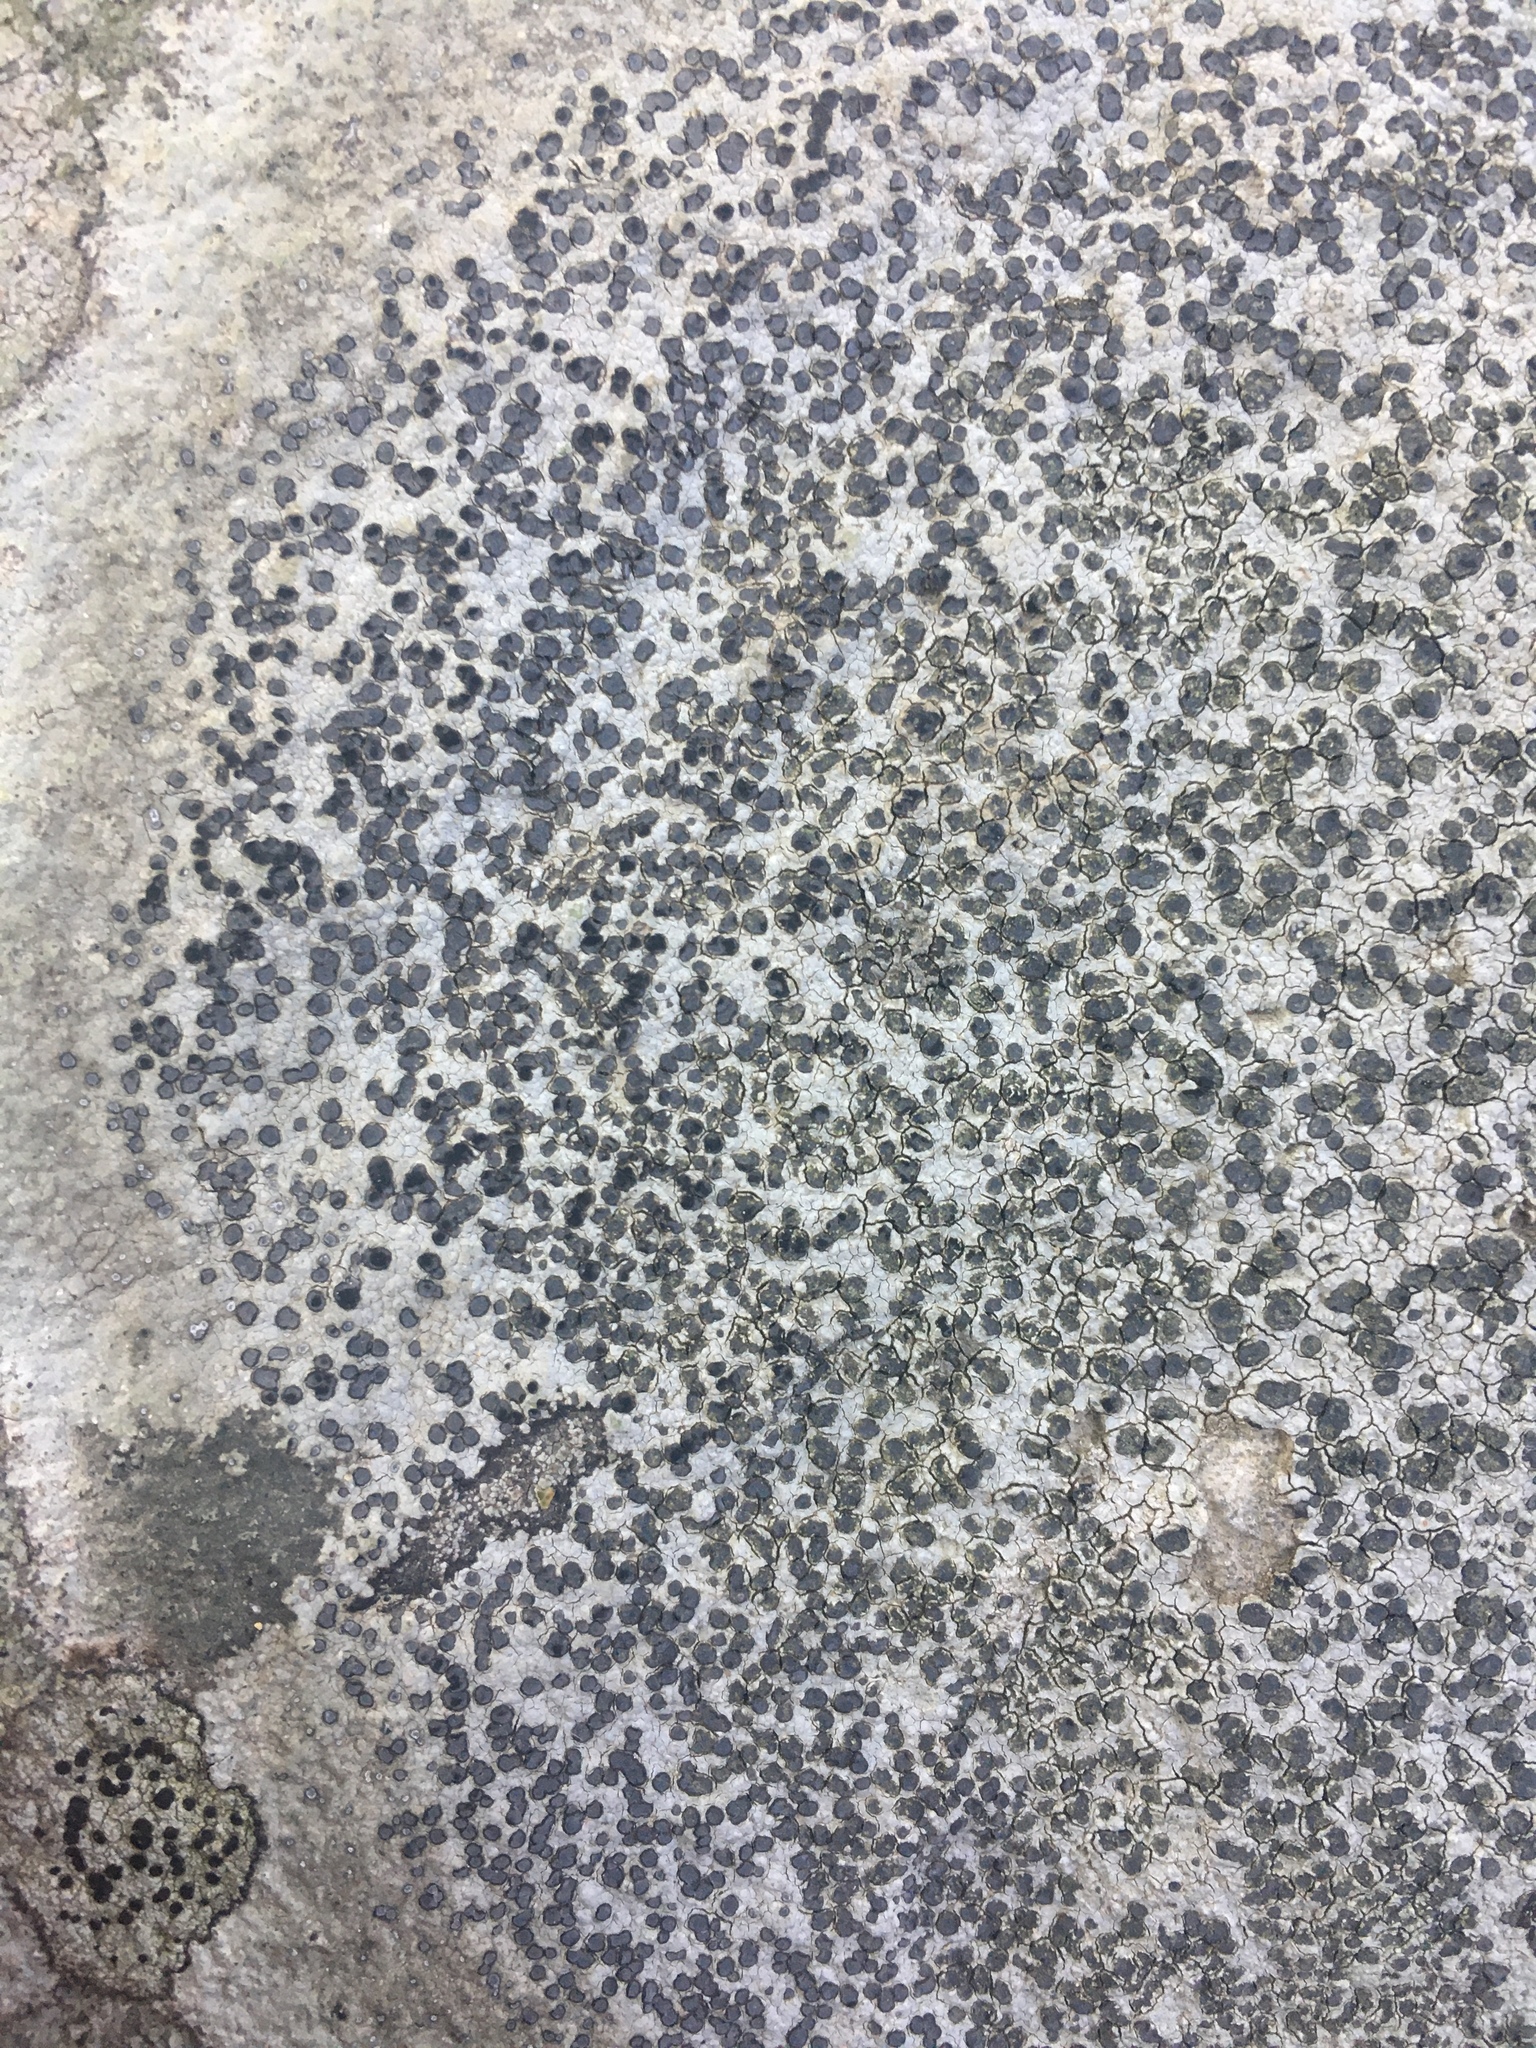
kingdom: Fungi
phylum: Ascomycota
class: Lecanoromycetes
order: Lecideales
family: Lecideaceae
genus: Porpidia
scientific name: Porpidia albocaerulescens
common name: Smokey-eyed boulder lichen
